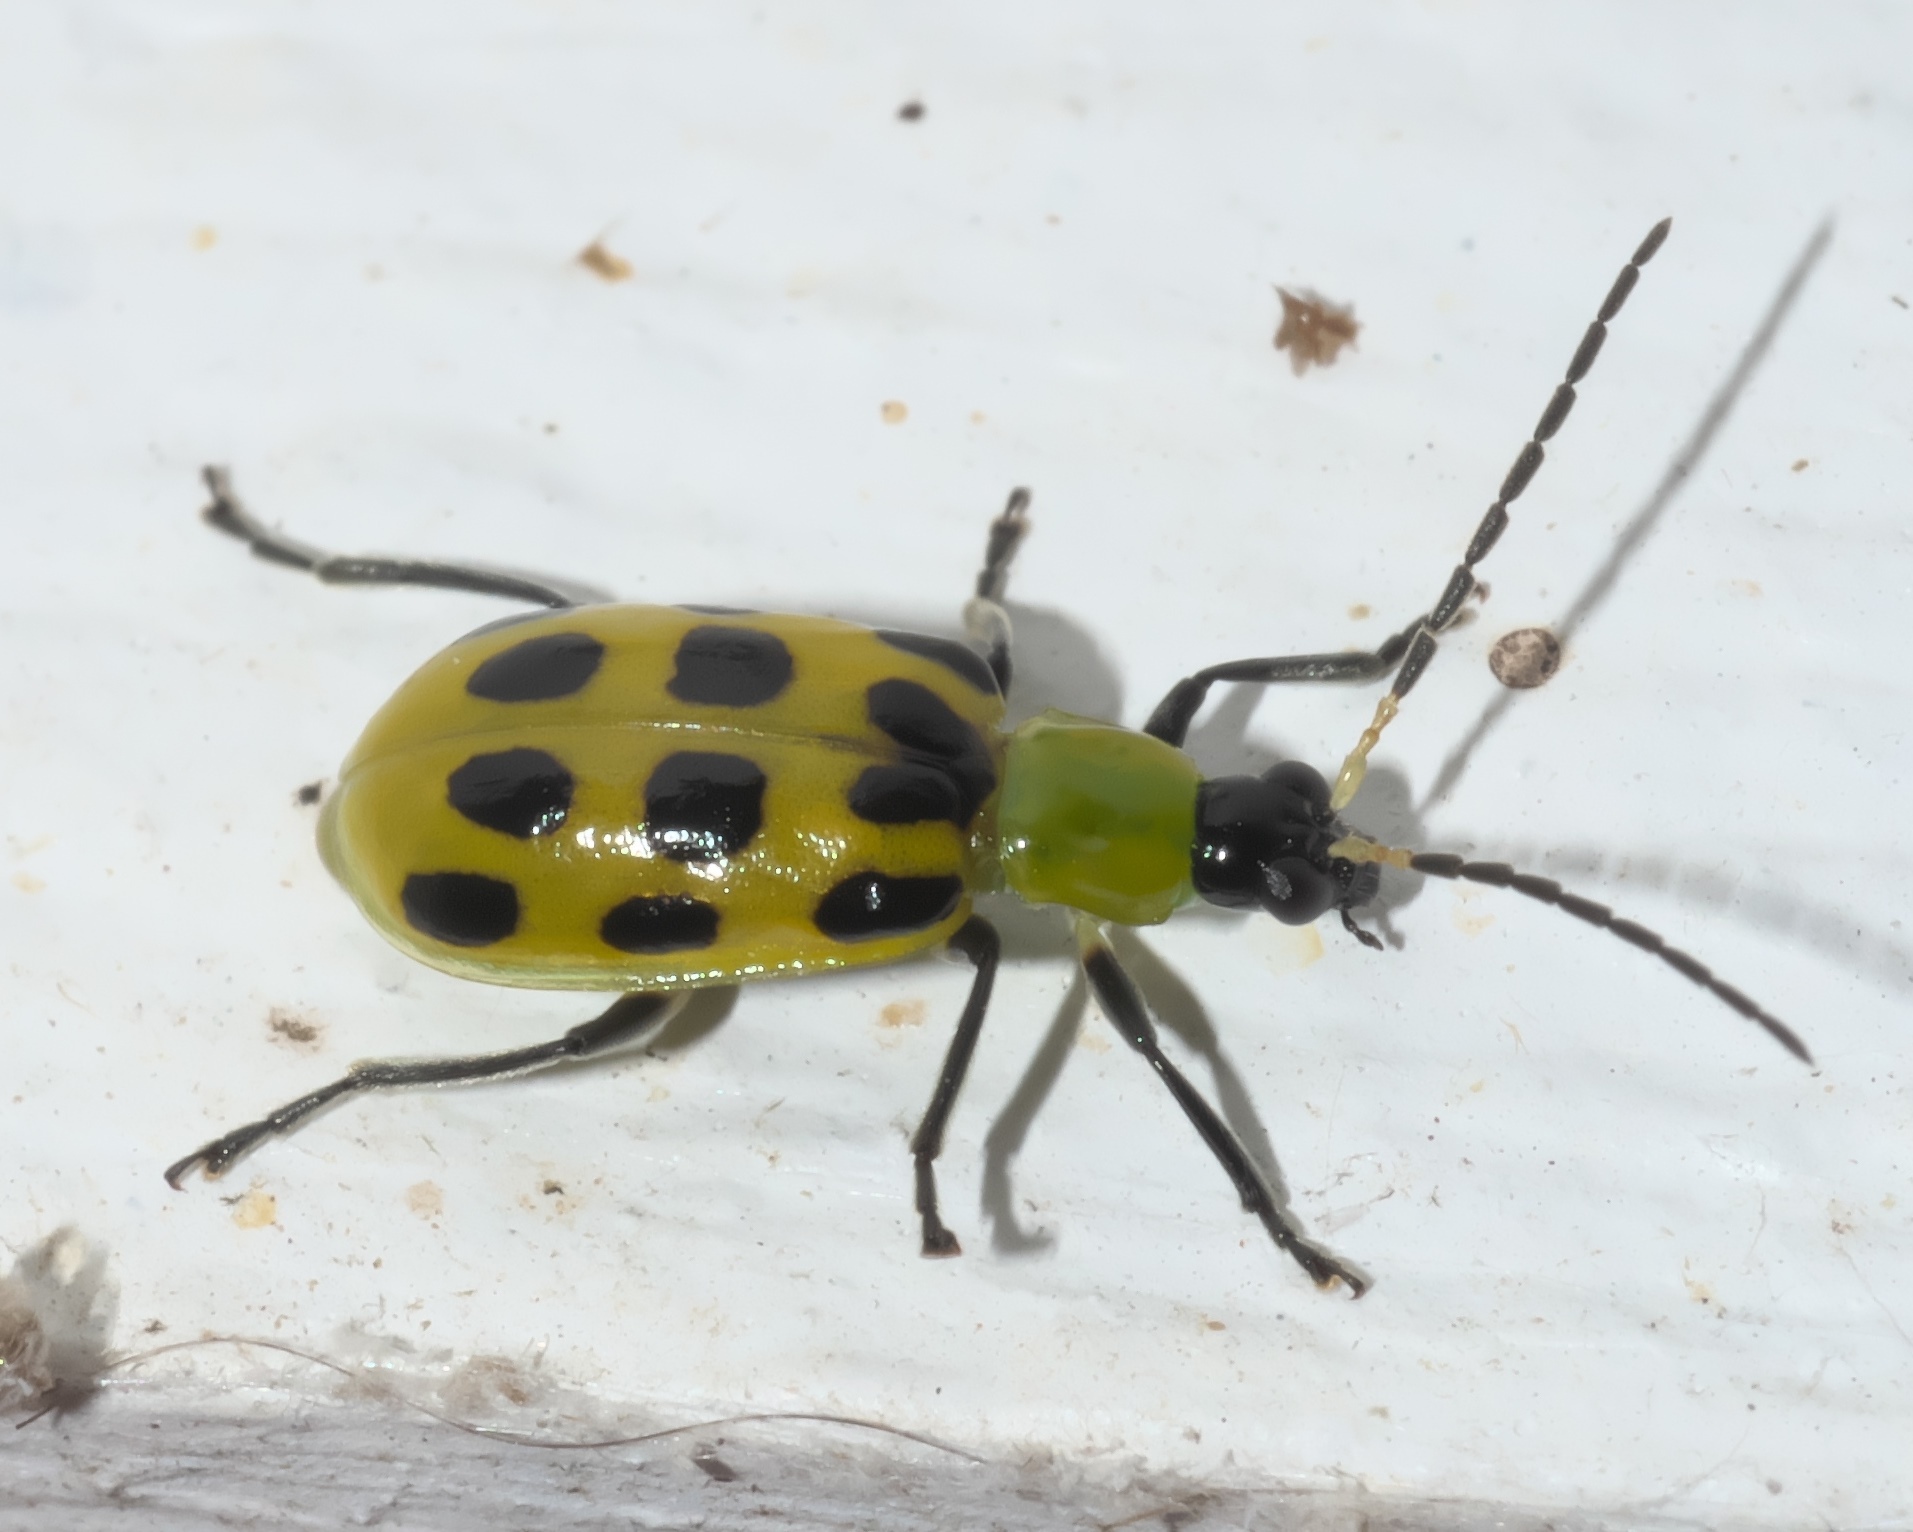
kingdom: Animalia
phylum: Arthropoda
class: Insecta
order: Coleoptera
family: Chrysomelidae
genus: Diabrotica
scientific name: Diabrotica undecimpunctata
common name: Spotted cucumber beetle
